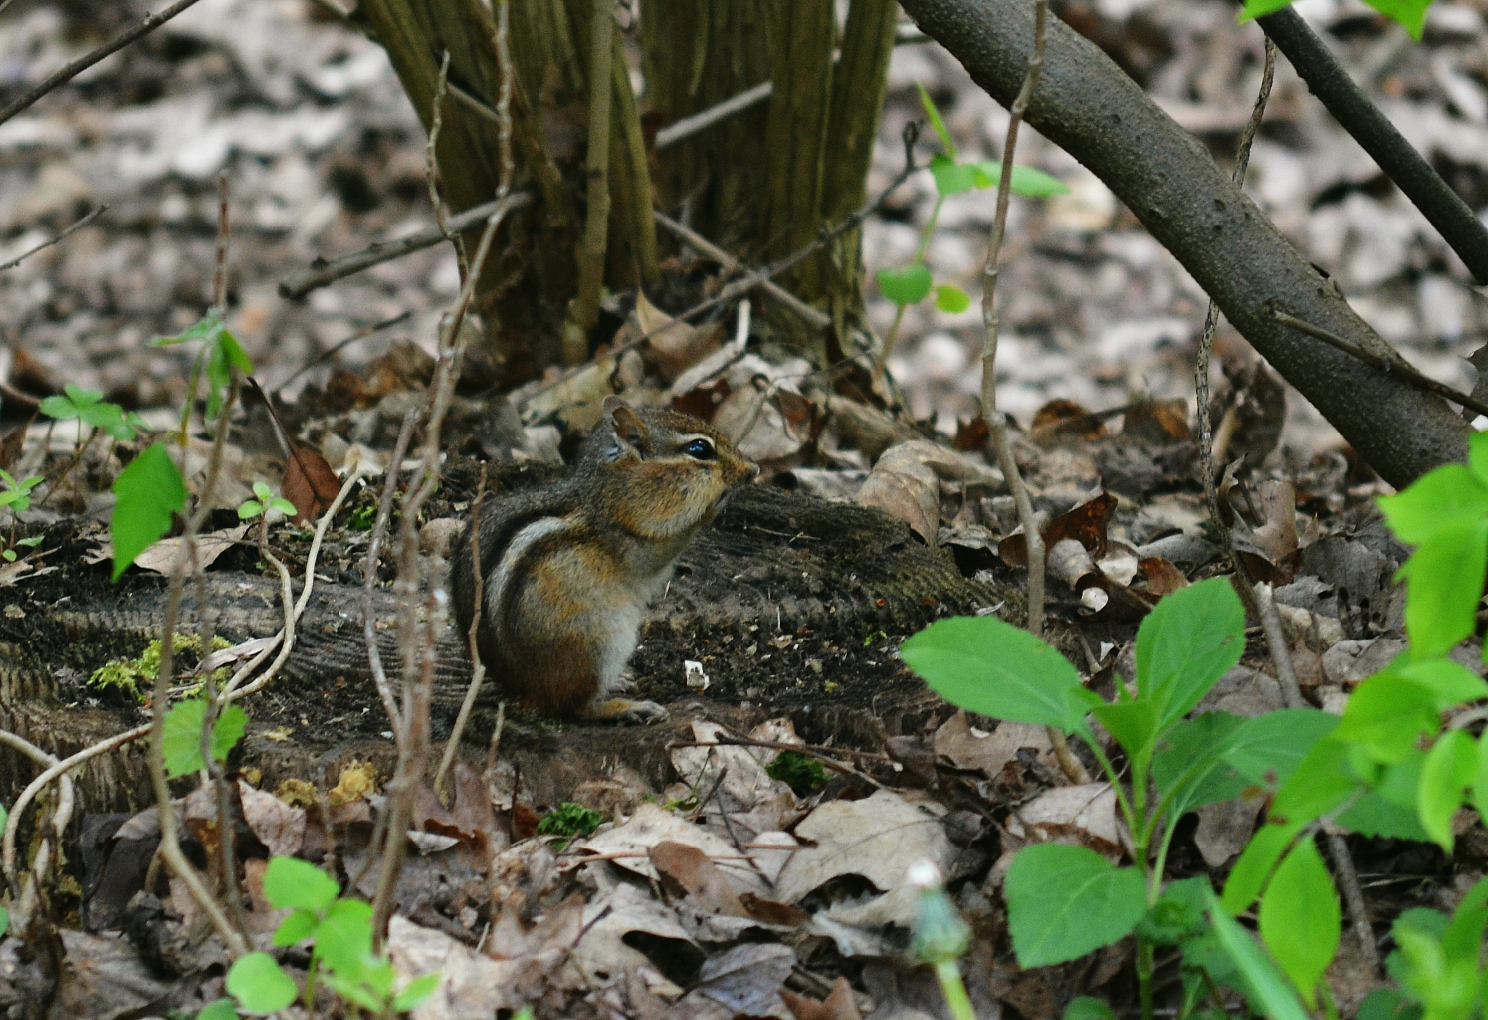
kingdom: Animalia
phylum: Chordata
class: Mammalia
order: Rodentia
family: Sciuridae
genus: Tamias
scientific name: Tamias striatus
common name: Eastern chipmunk
